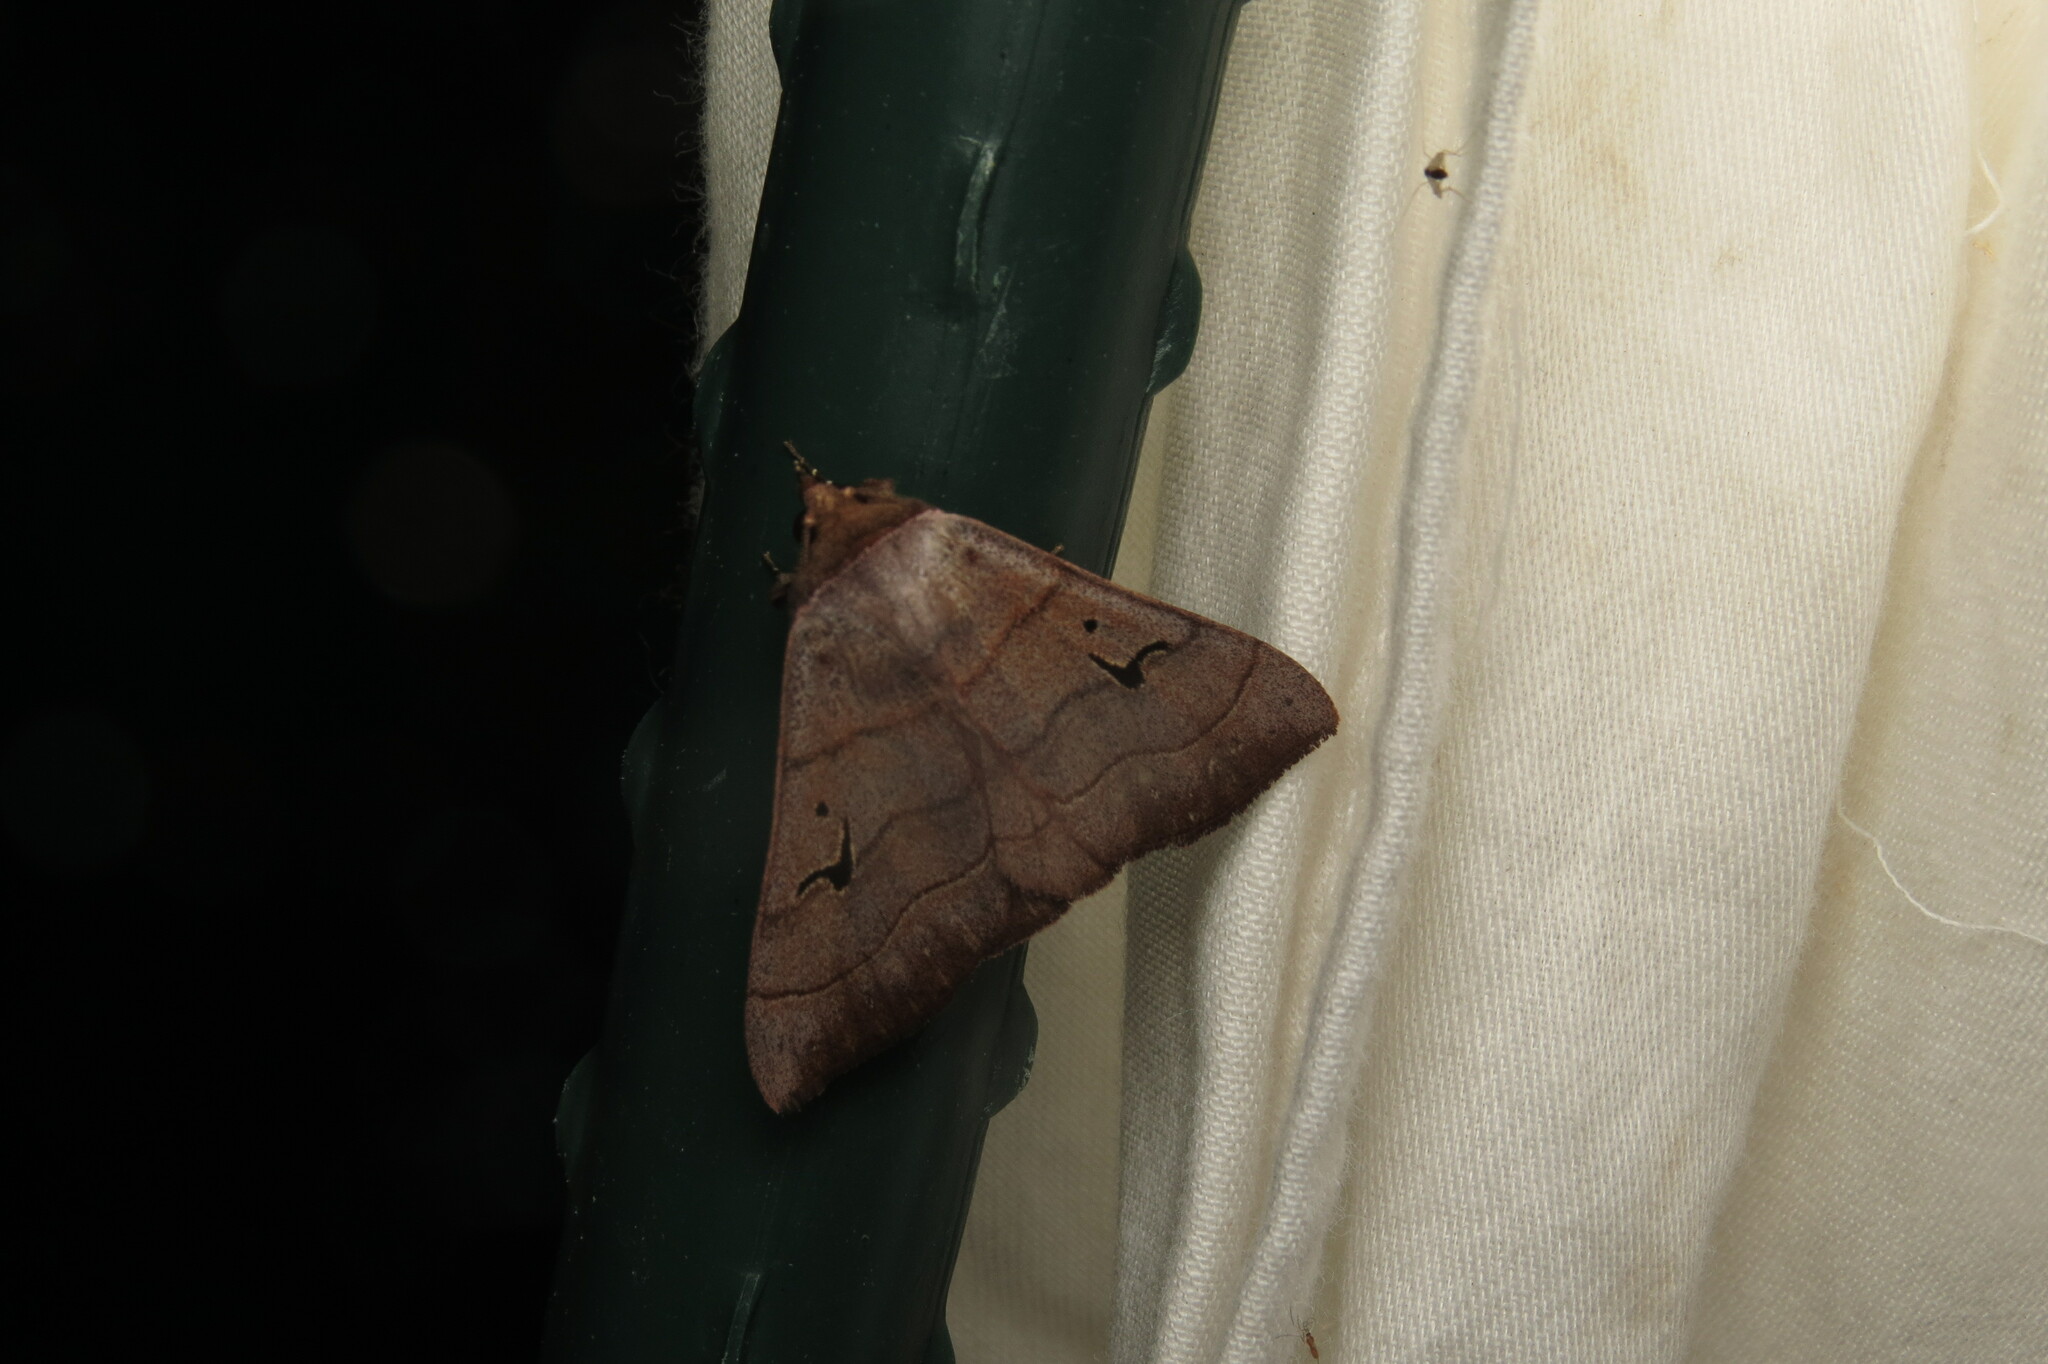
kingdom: Animalia
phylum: Arthropoda
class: Insecta
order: Lepidoptera
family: Erebidae
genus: Panopoda
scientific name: Panopoda carneicosta
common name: Brown panopoda moth
